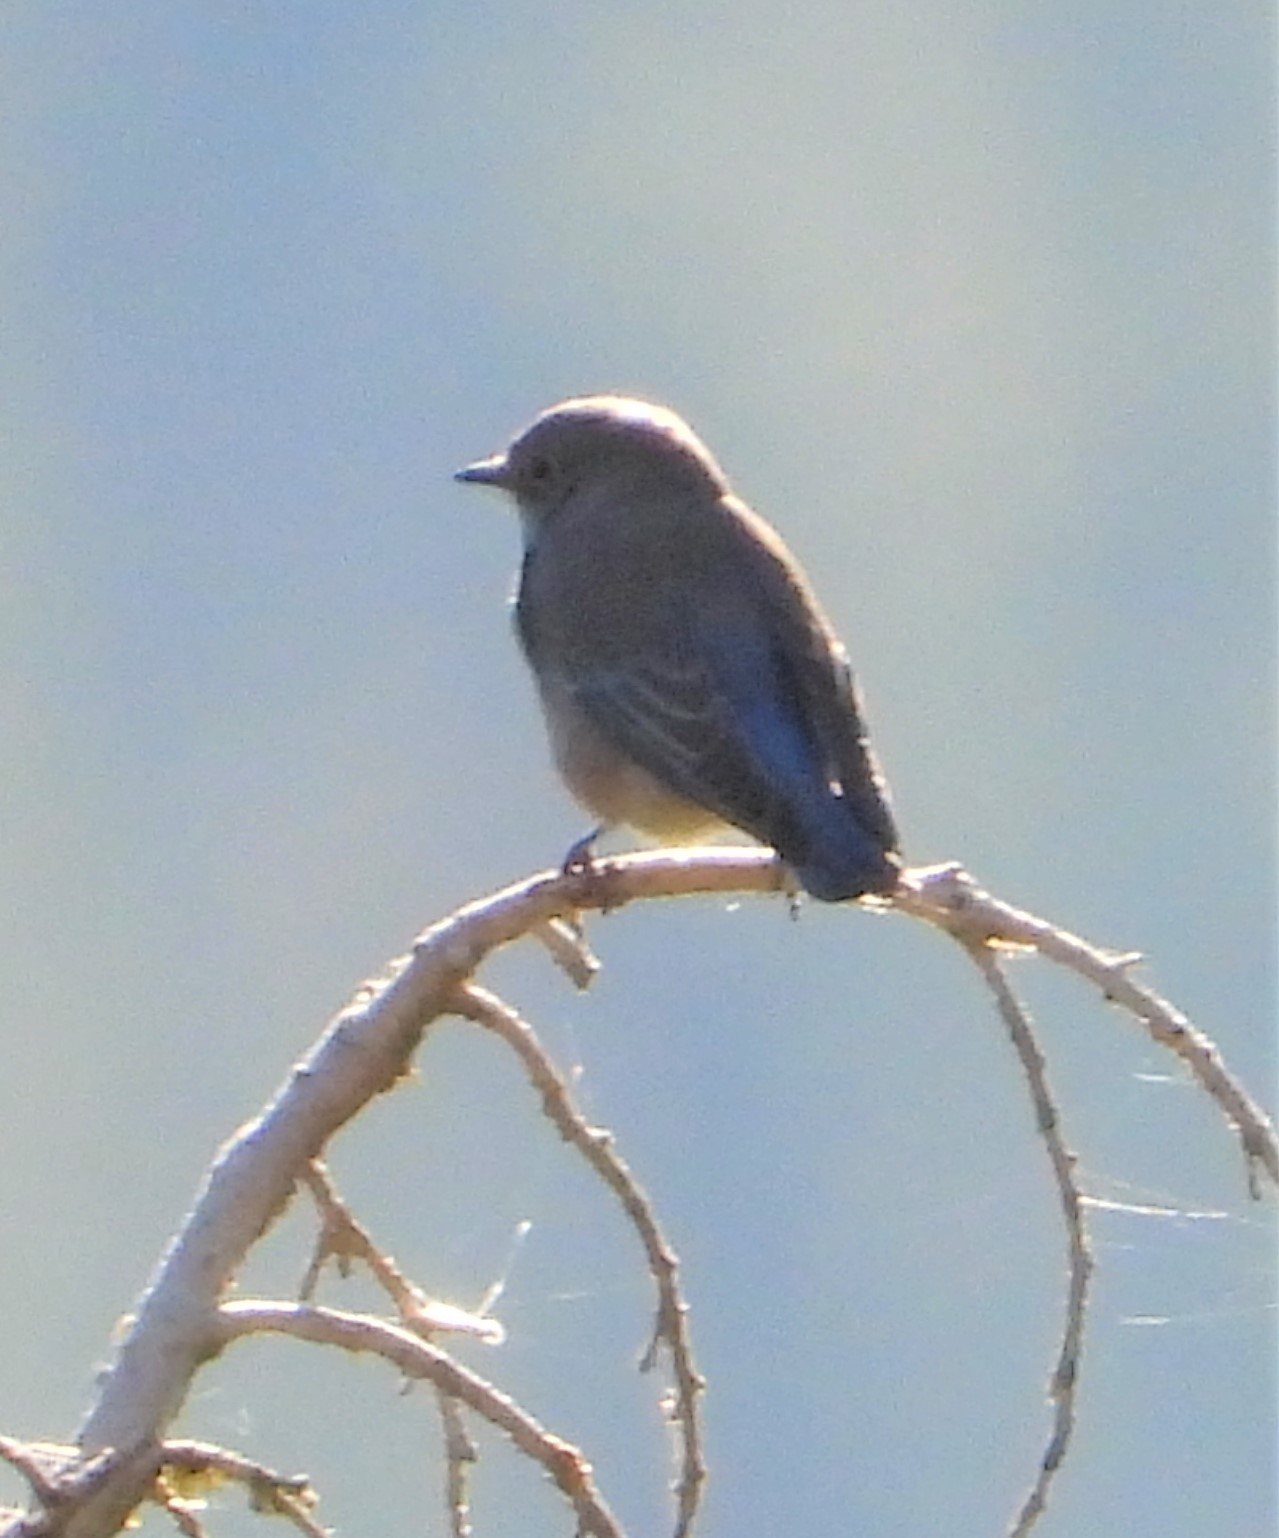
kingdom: Animalia
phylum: Chordata
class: Aves
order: Passeriformes
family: Turdidae
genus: Sialia
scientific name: Sialia mexicana
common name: Western bluebird
